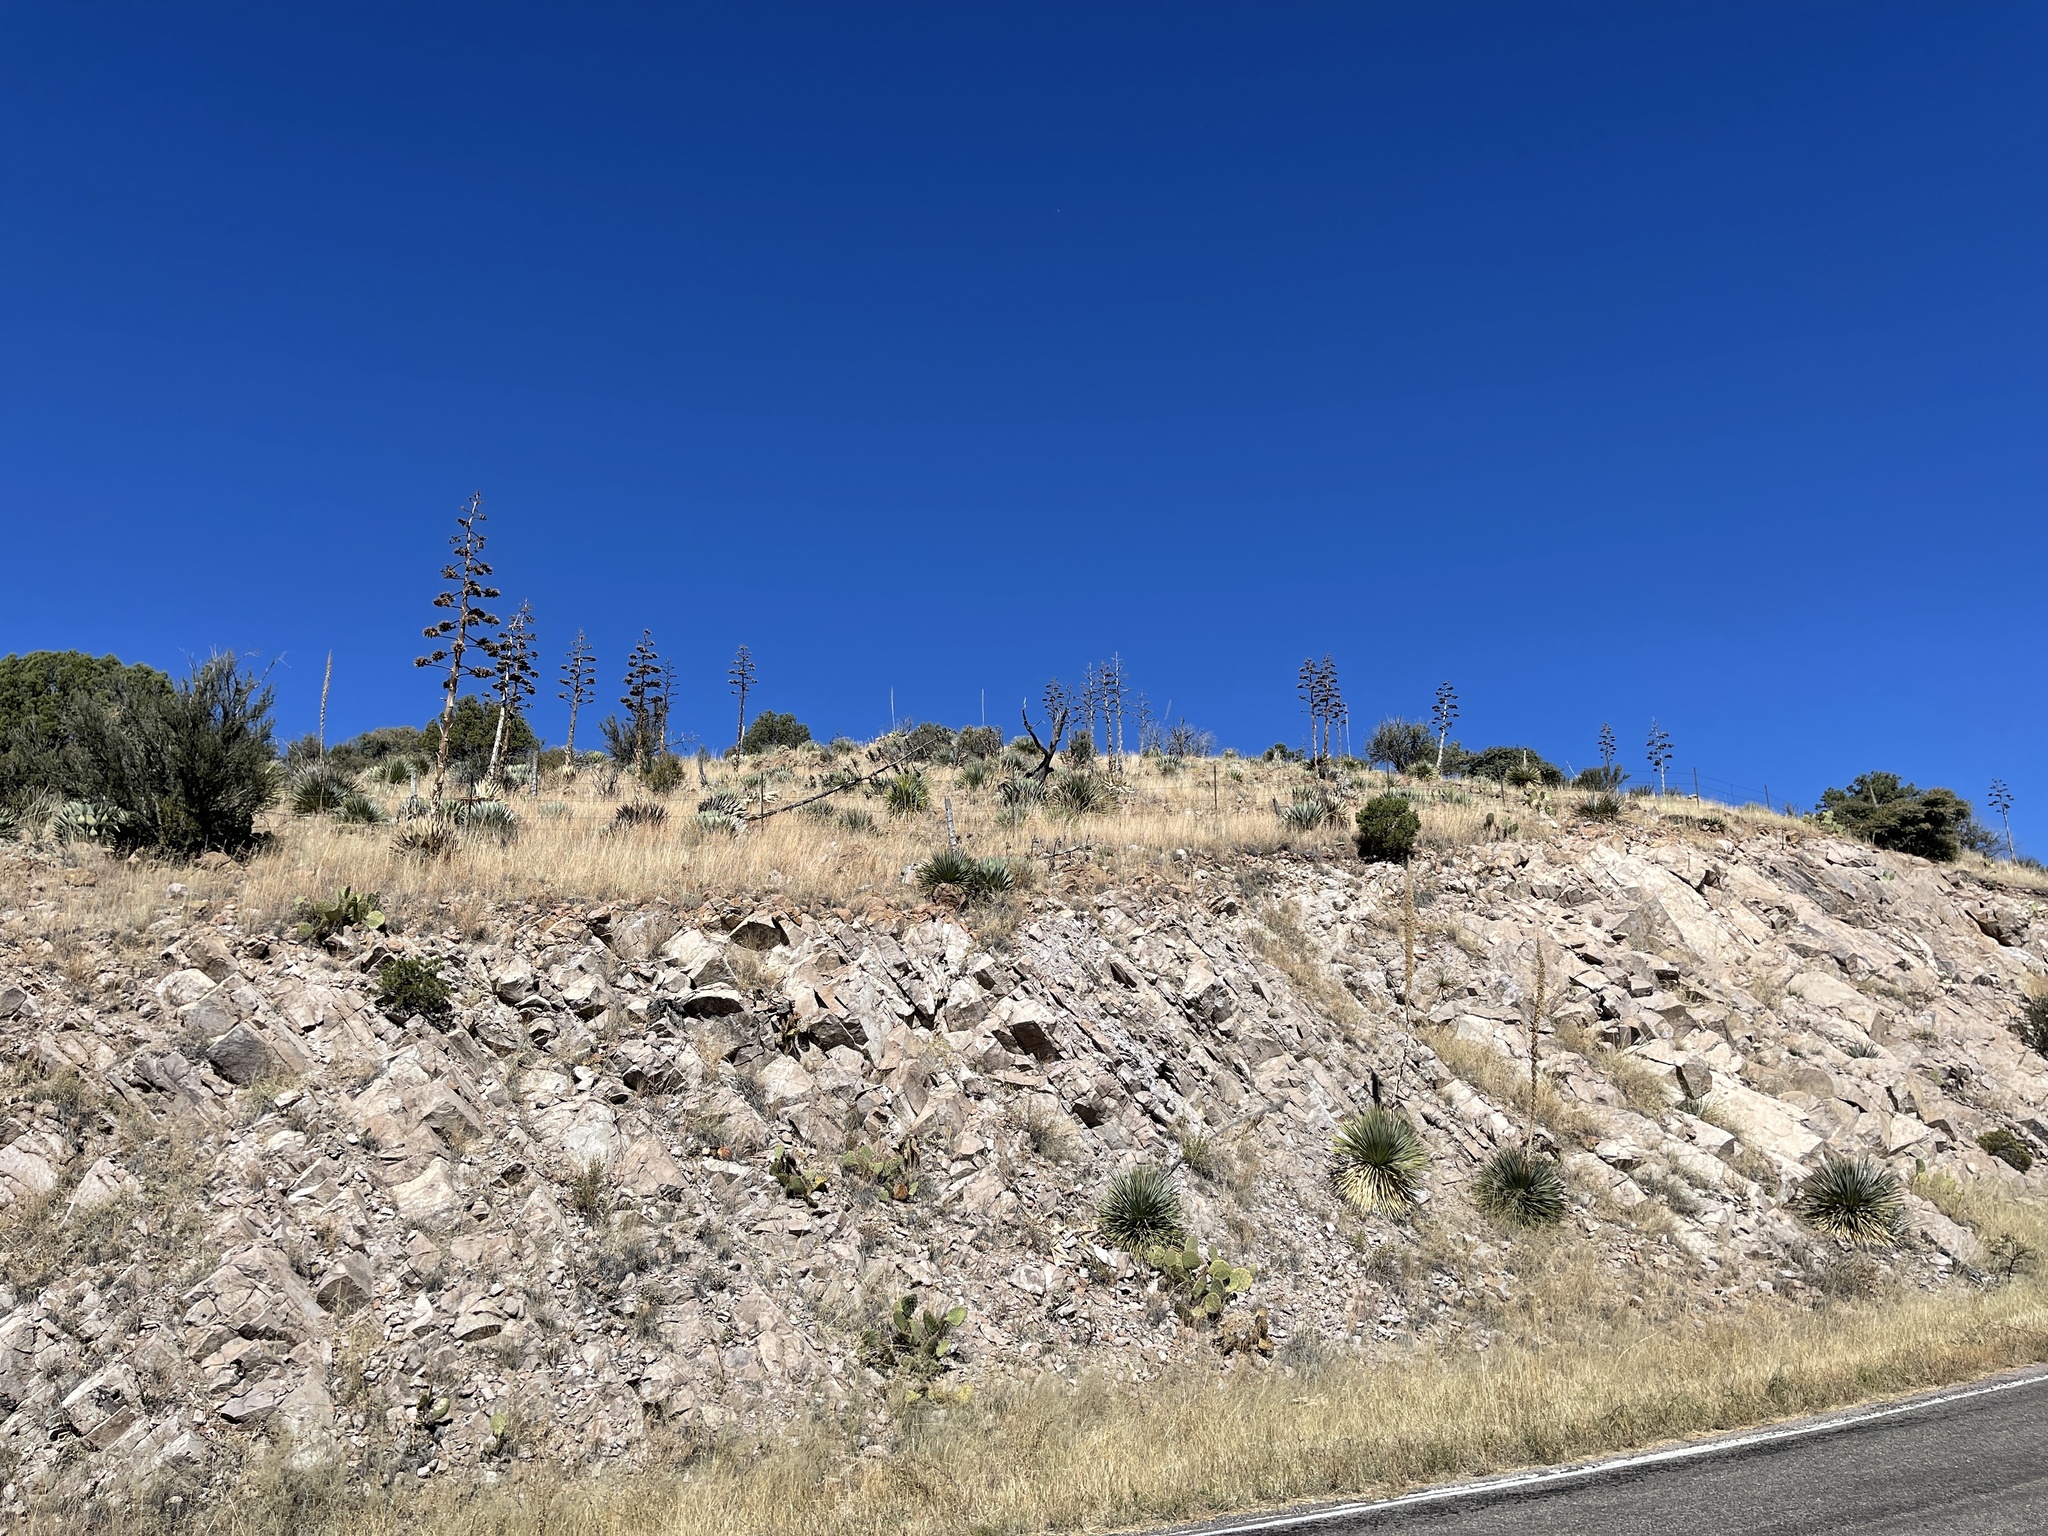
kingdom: Plantae
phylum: Tracheophyta
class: Liliopsida
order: Asparagales
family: Asparagaceae
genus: Agave
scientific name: Agave parryi
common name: Parry's agave
